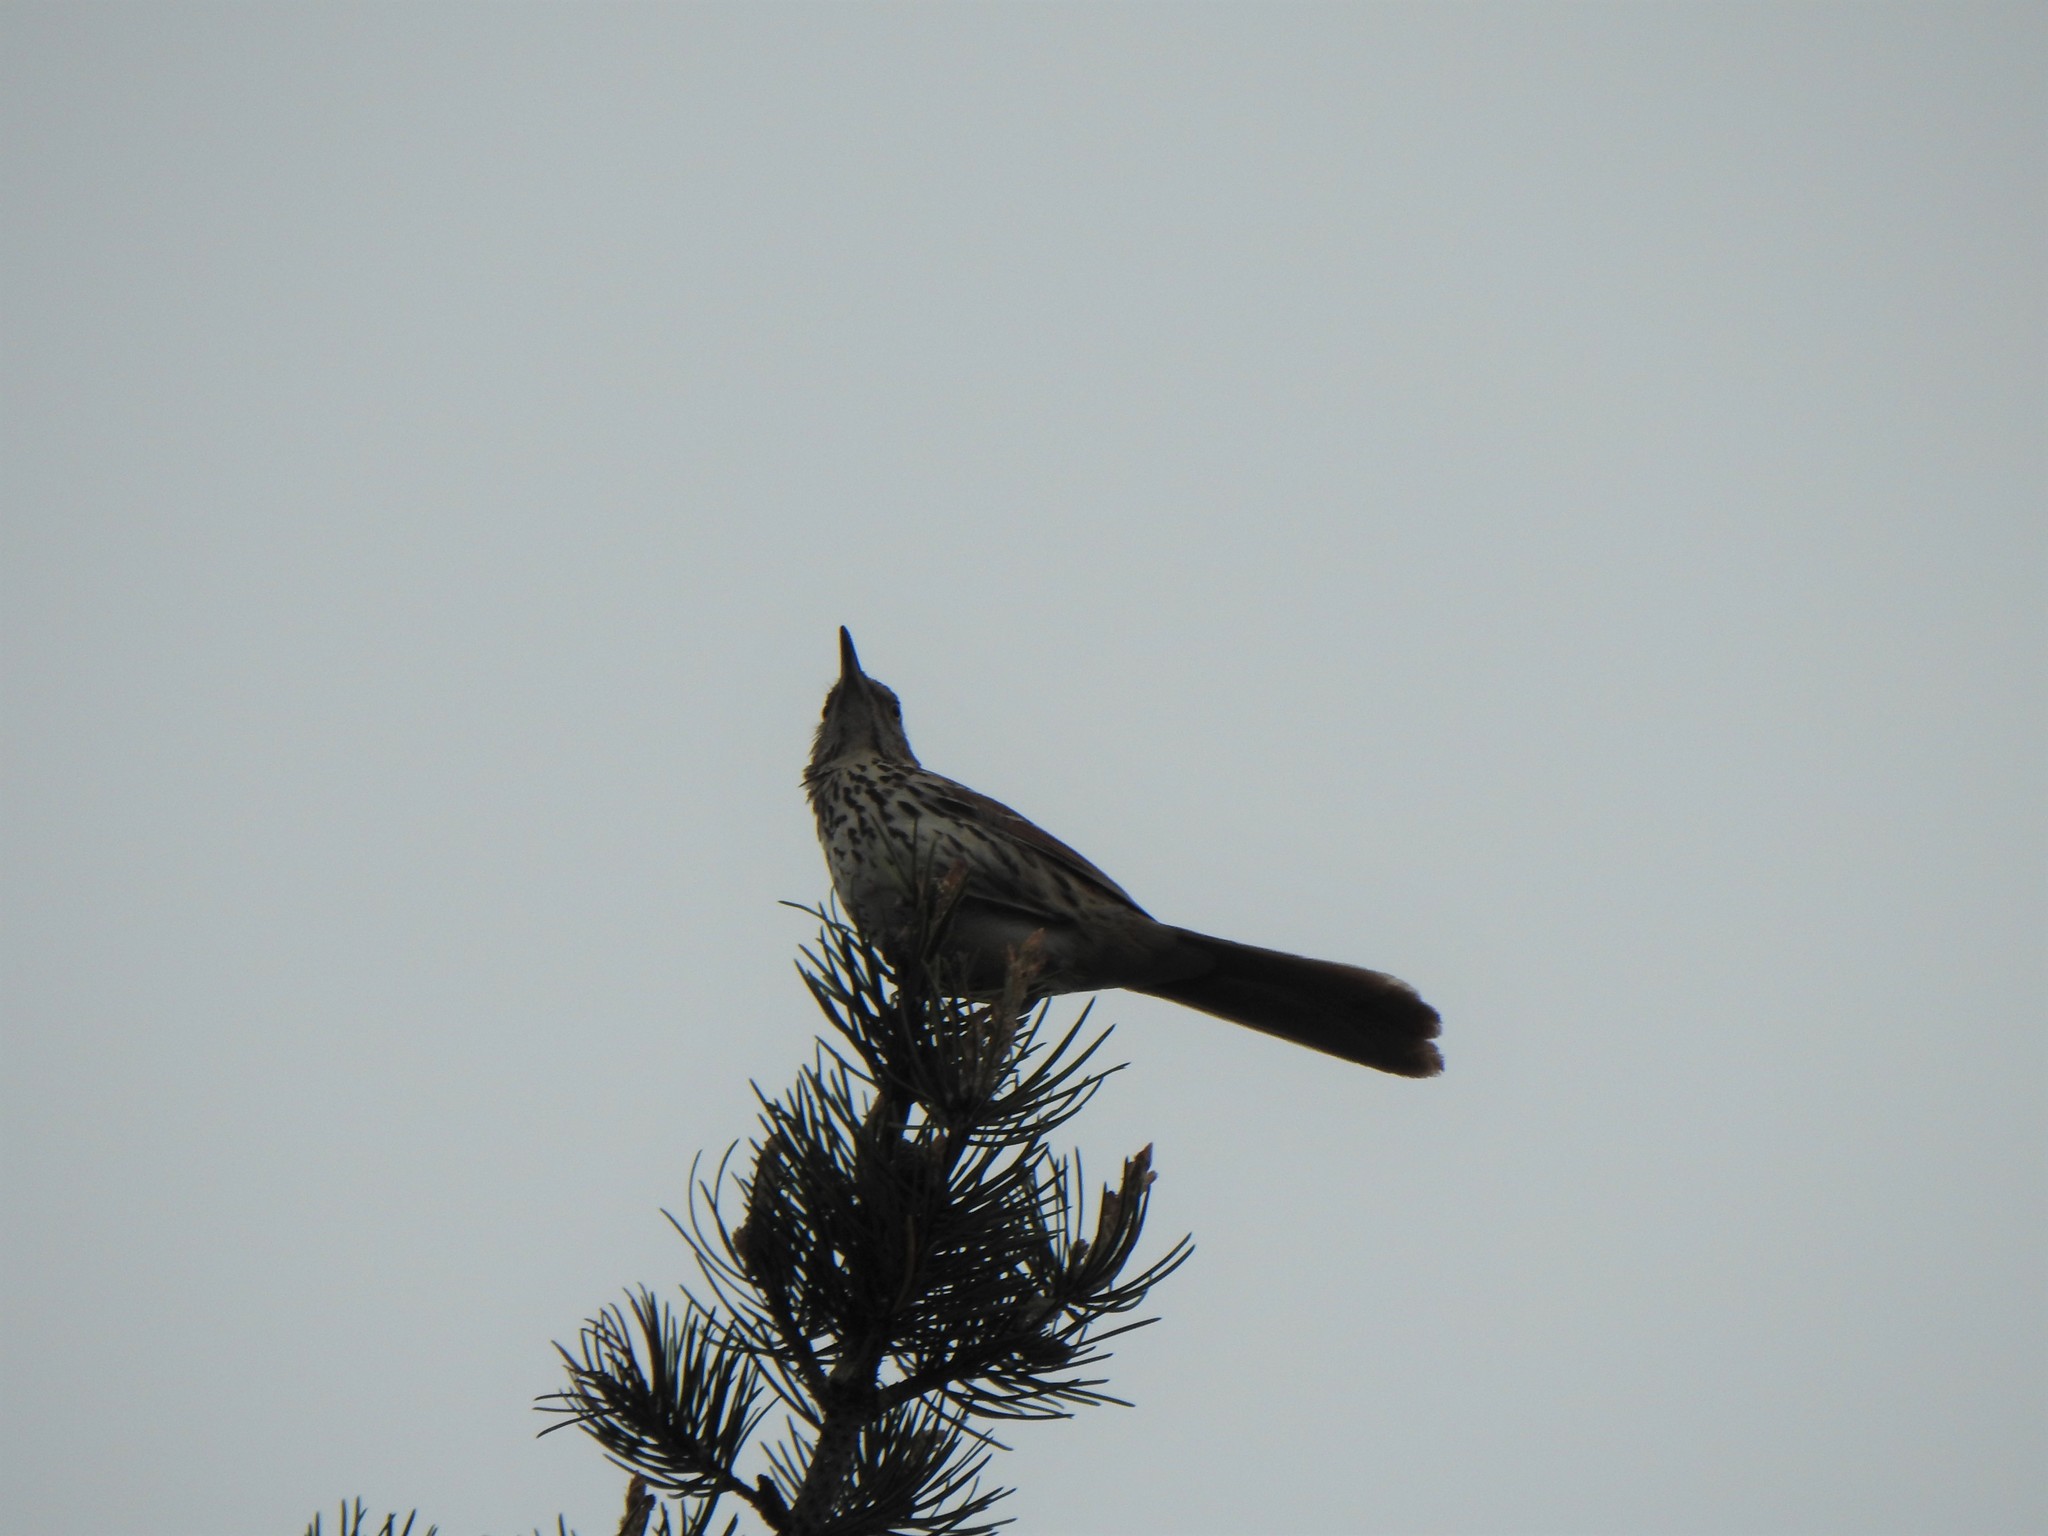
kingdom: Animalia
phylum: Chordata
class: Aves
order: Passeriformes
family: Mimidae
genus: Toxostoma
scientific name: Toxostoma rufum
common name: Brown thrasher
